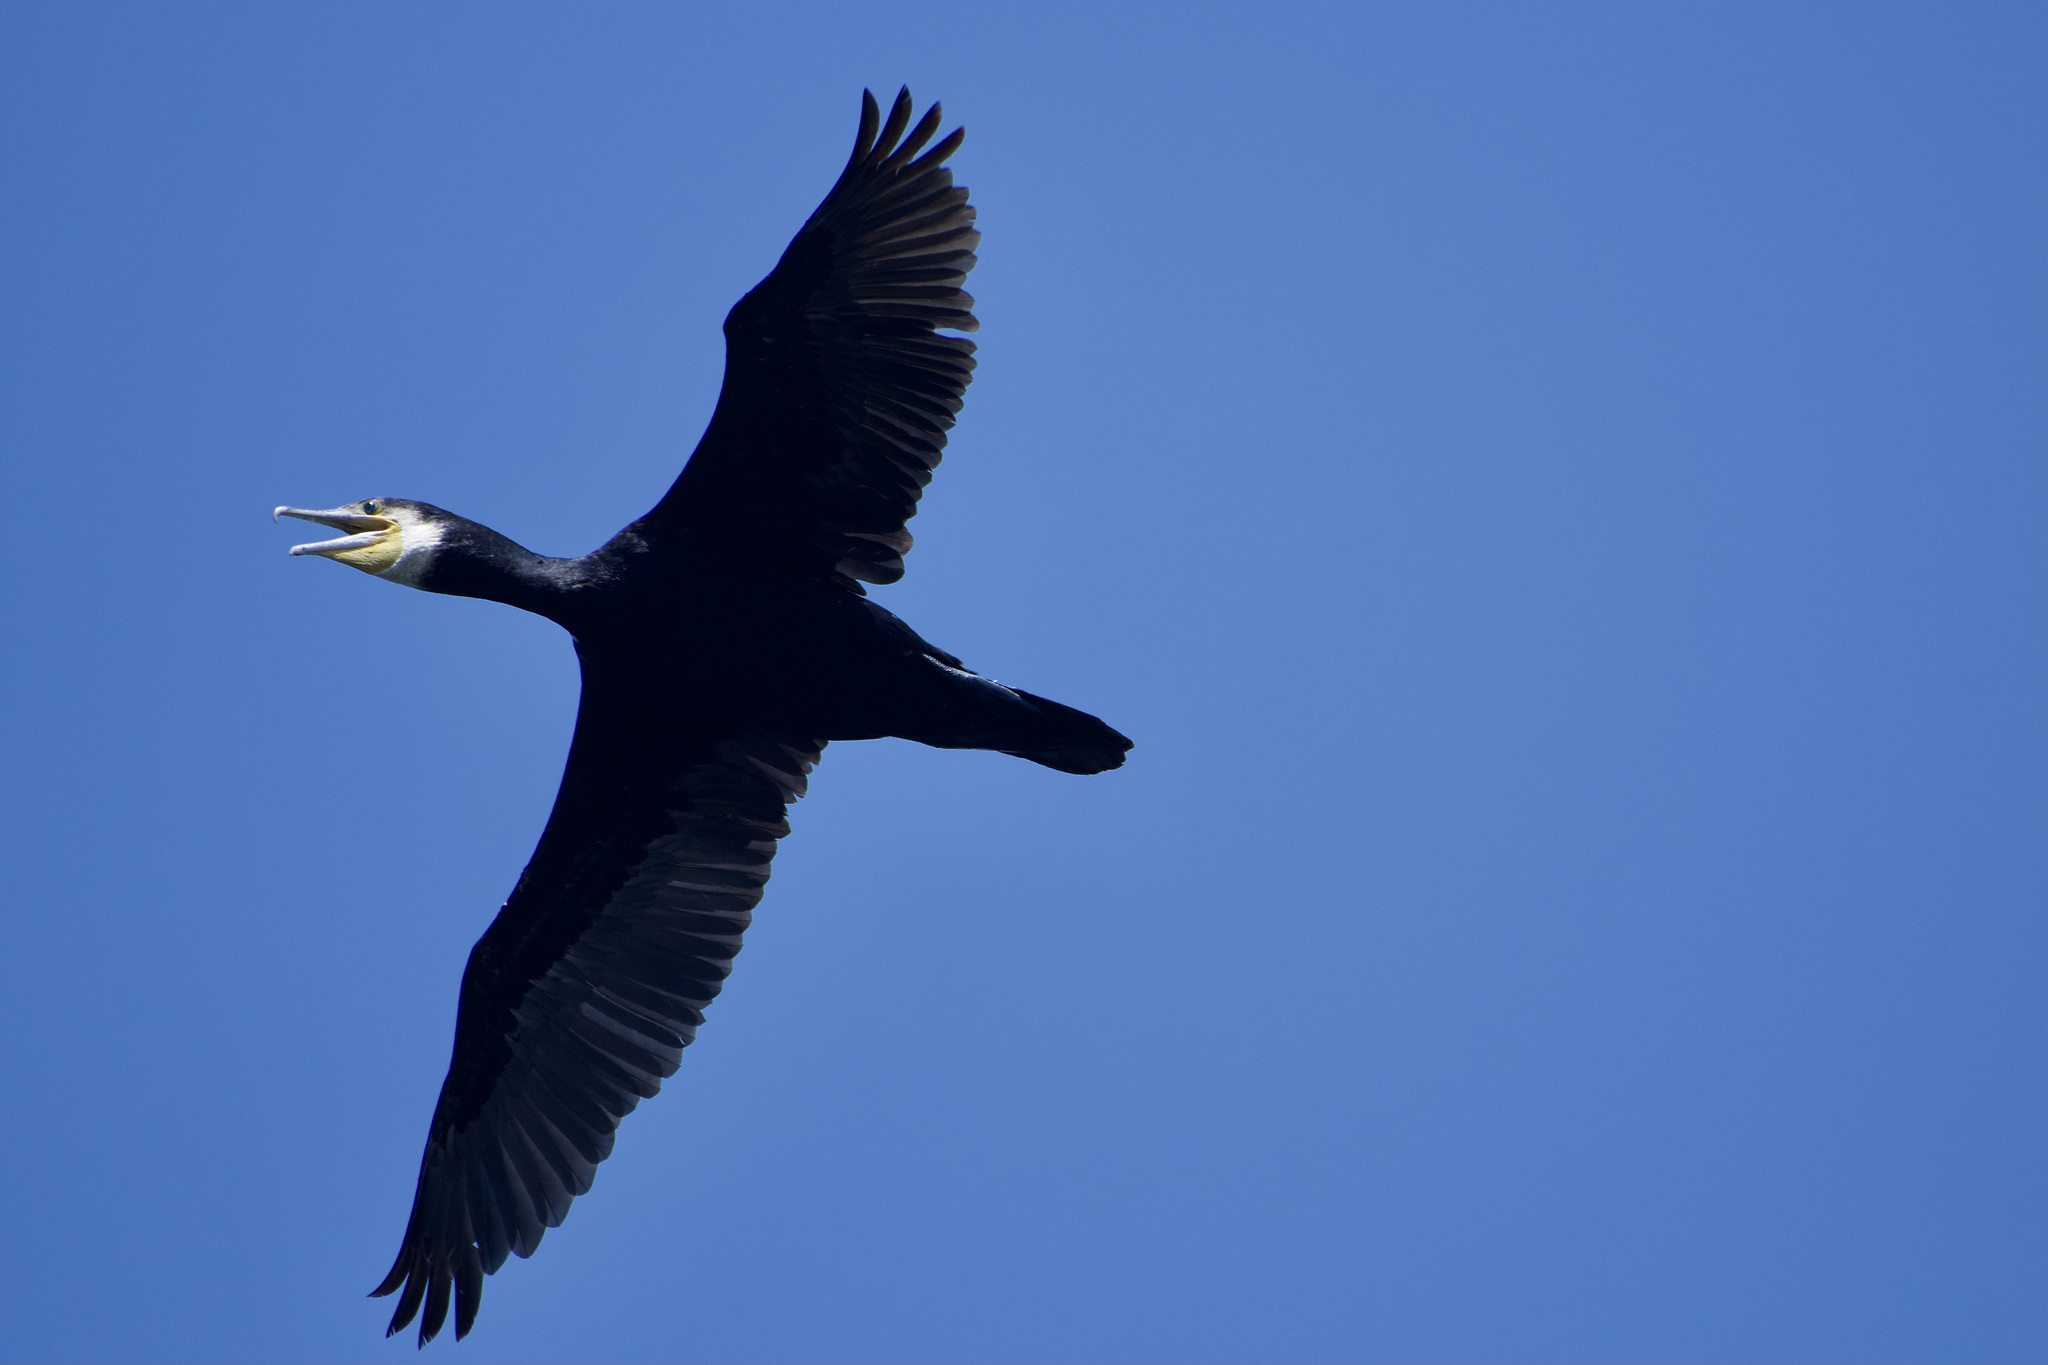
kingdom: Animalia
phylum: Chordata
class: Aves
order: Suliformes
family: Phalacrocoracidae
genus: Phalacrocorax
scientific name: Phalacrocorax carbo
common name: Great cormorant
